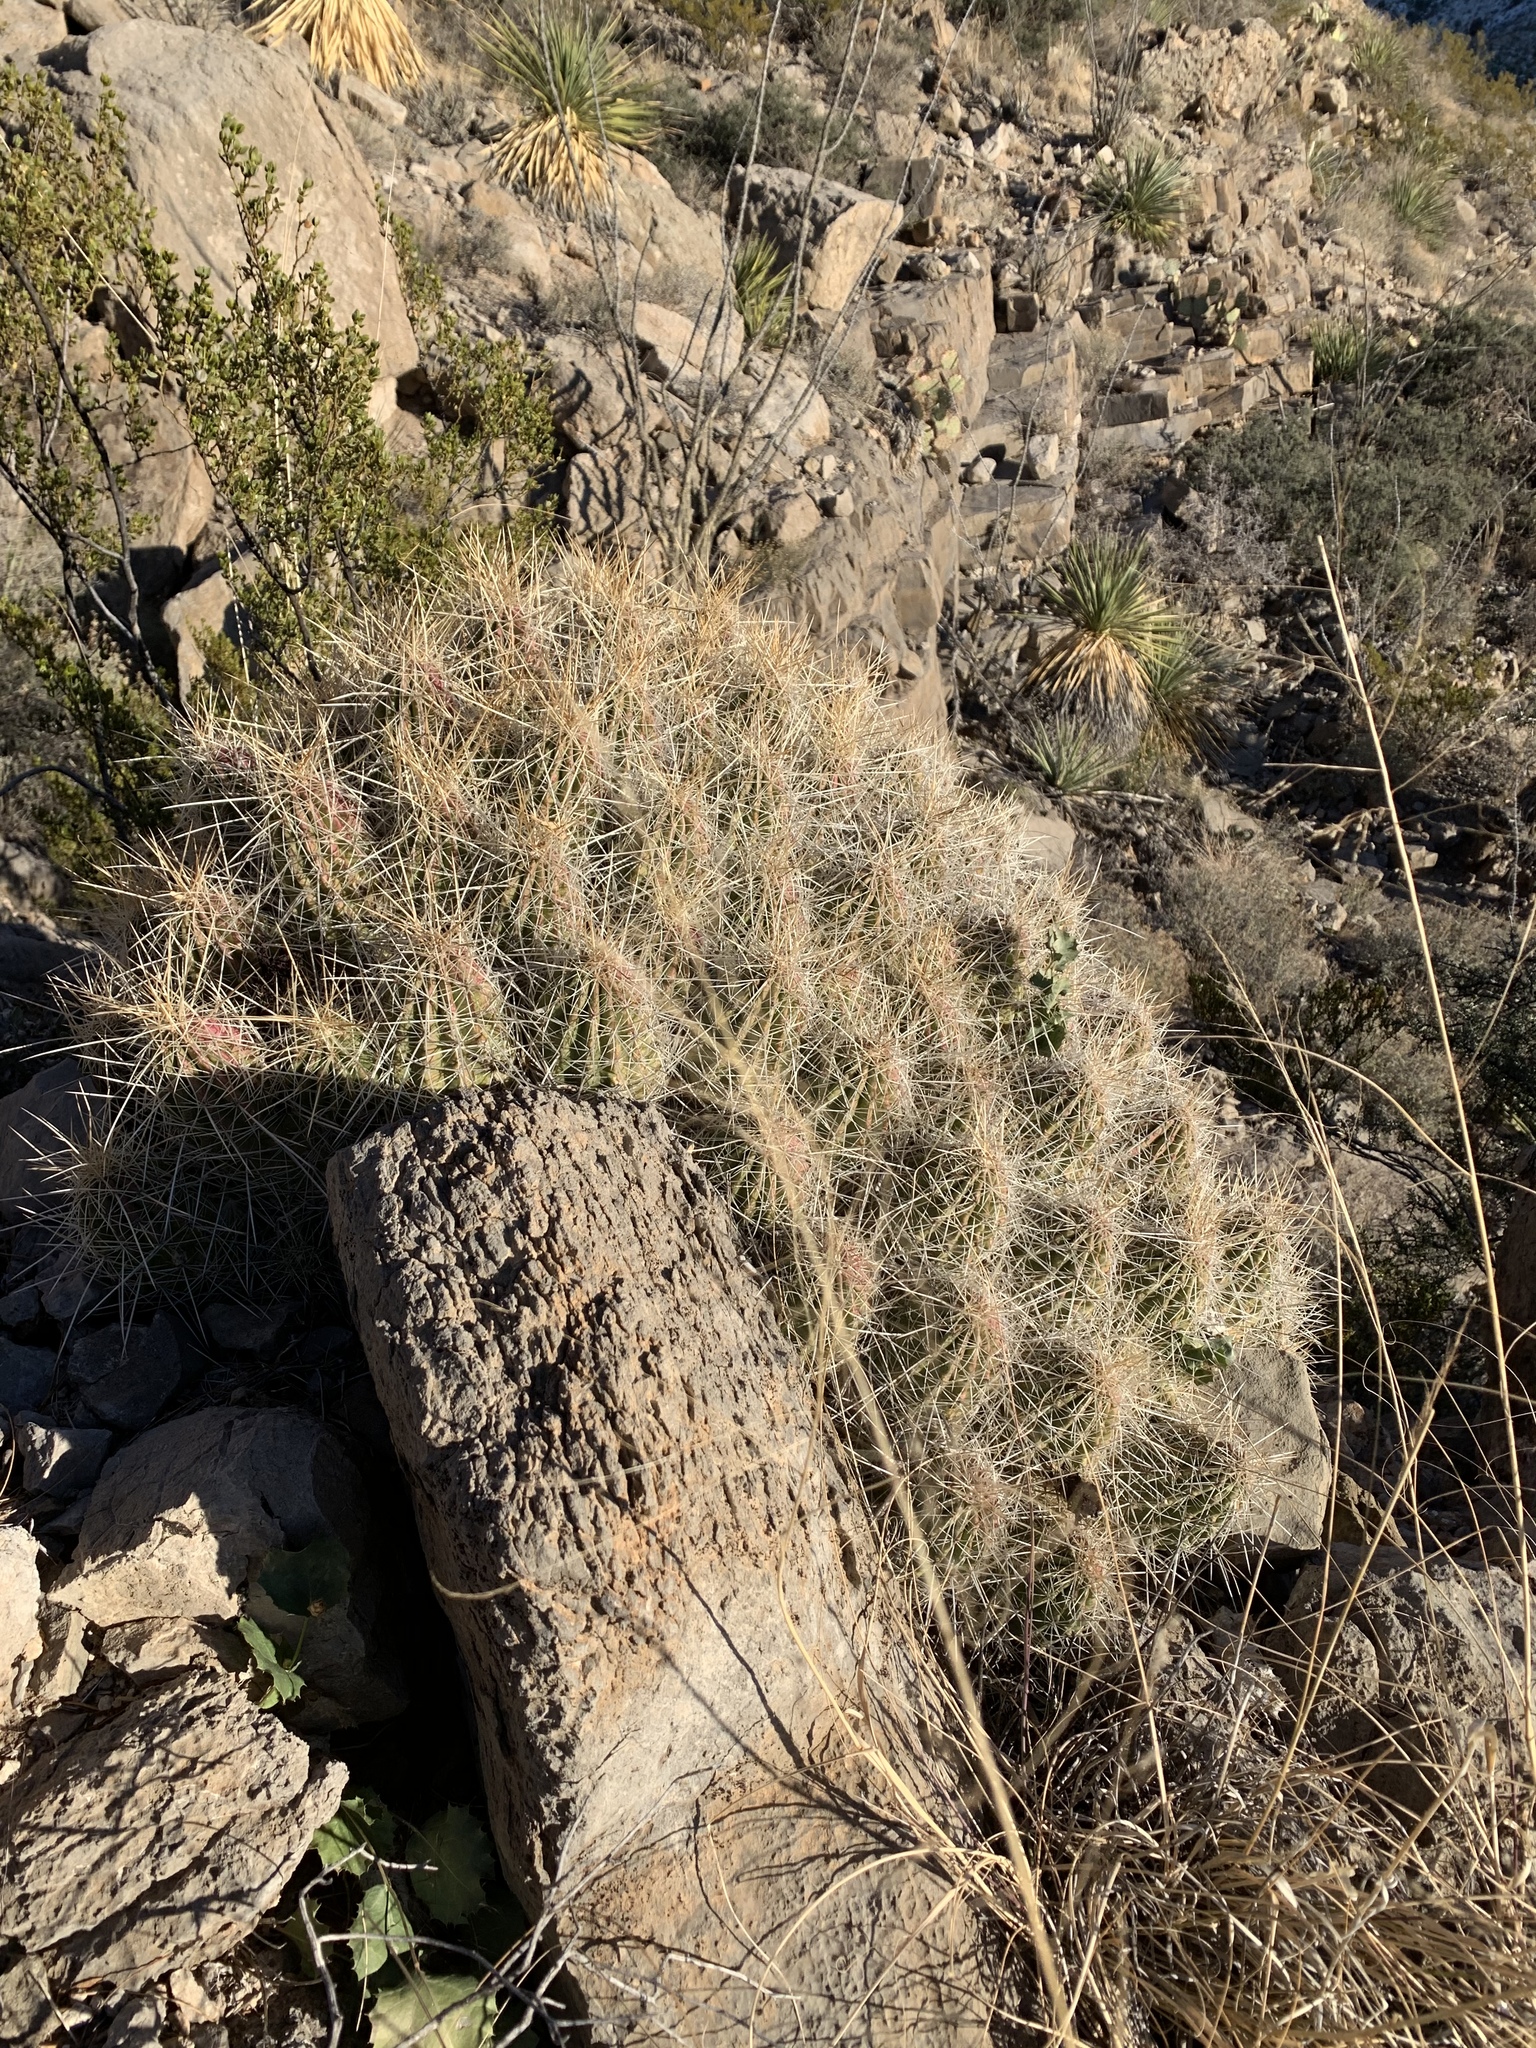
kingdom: Plantae
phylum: Tracheophyta
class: Magnoliopsida
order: Caryophyllales
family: Cactaceae
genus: Echinocereus
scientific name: Echinocereus stramineus
